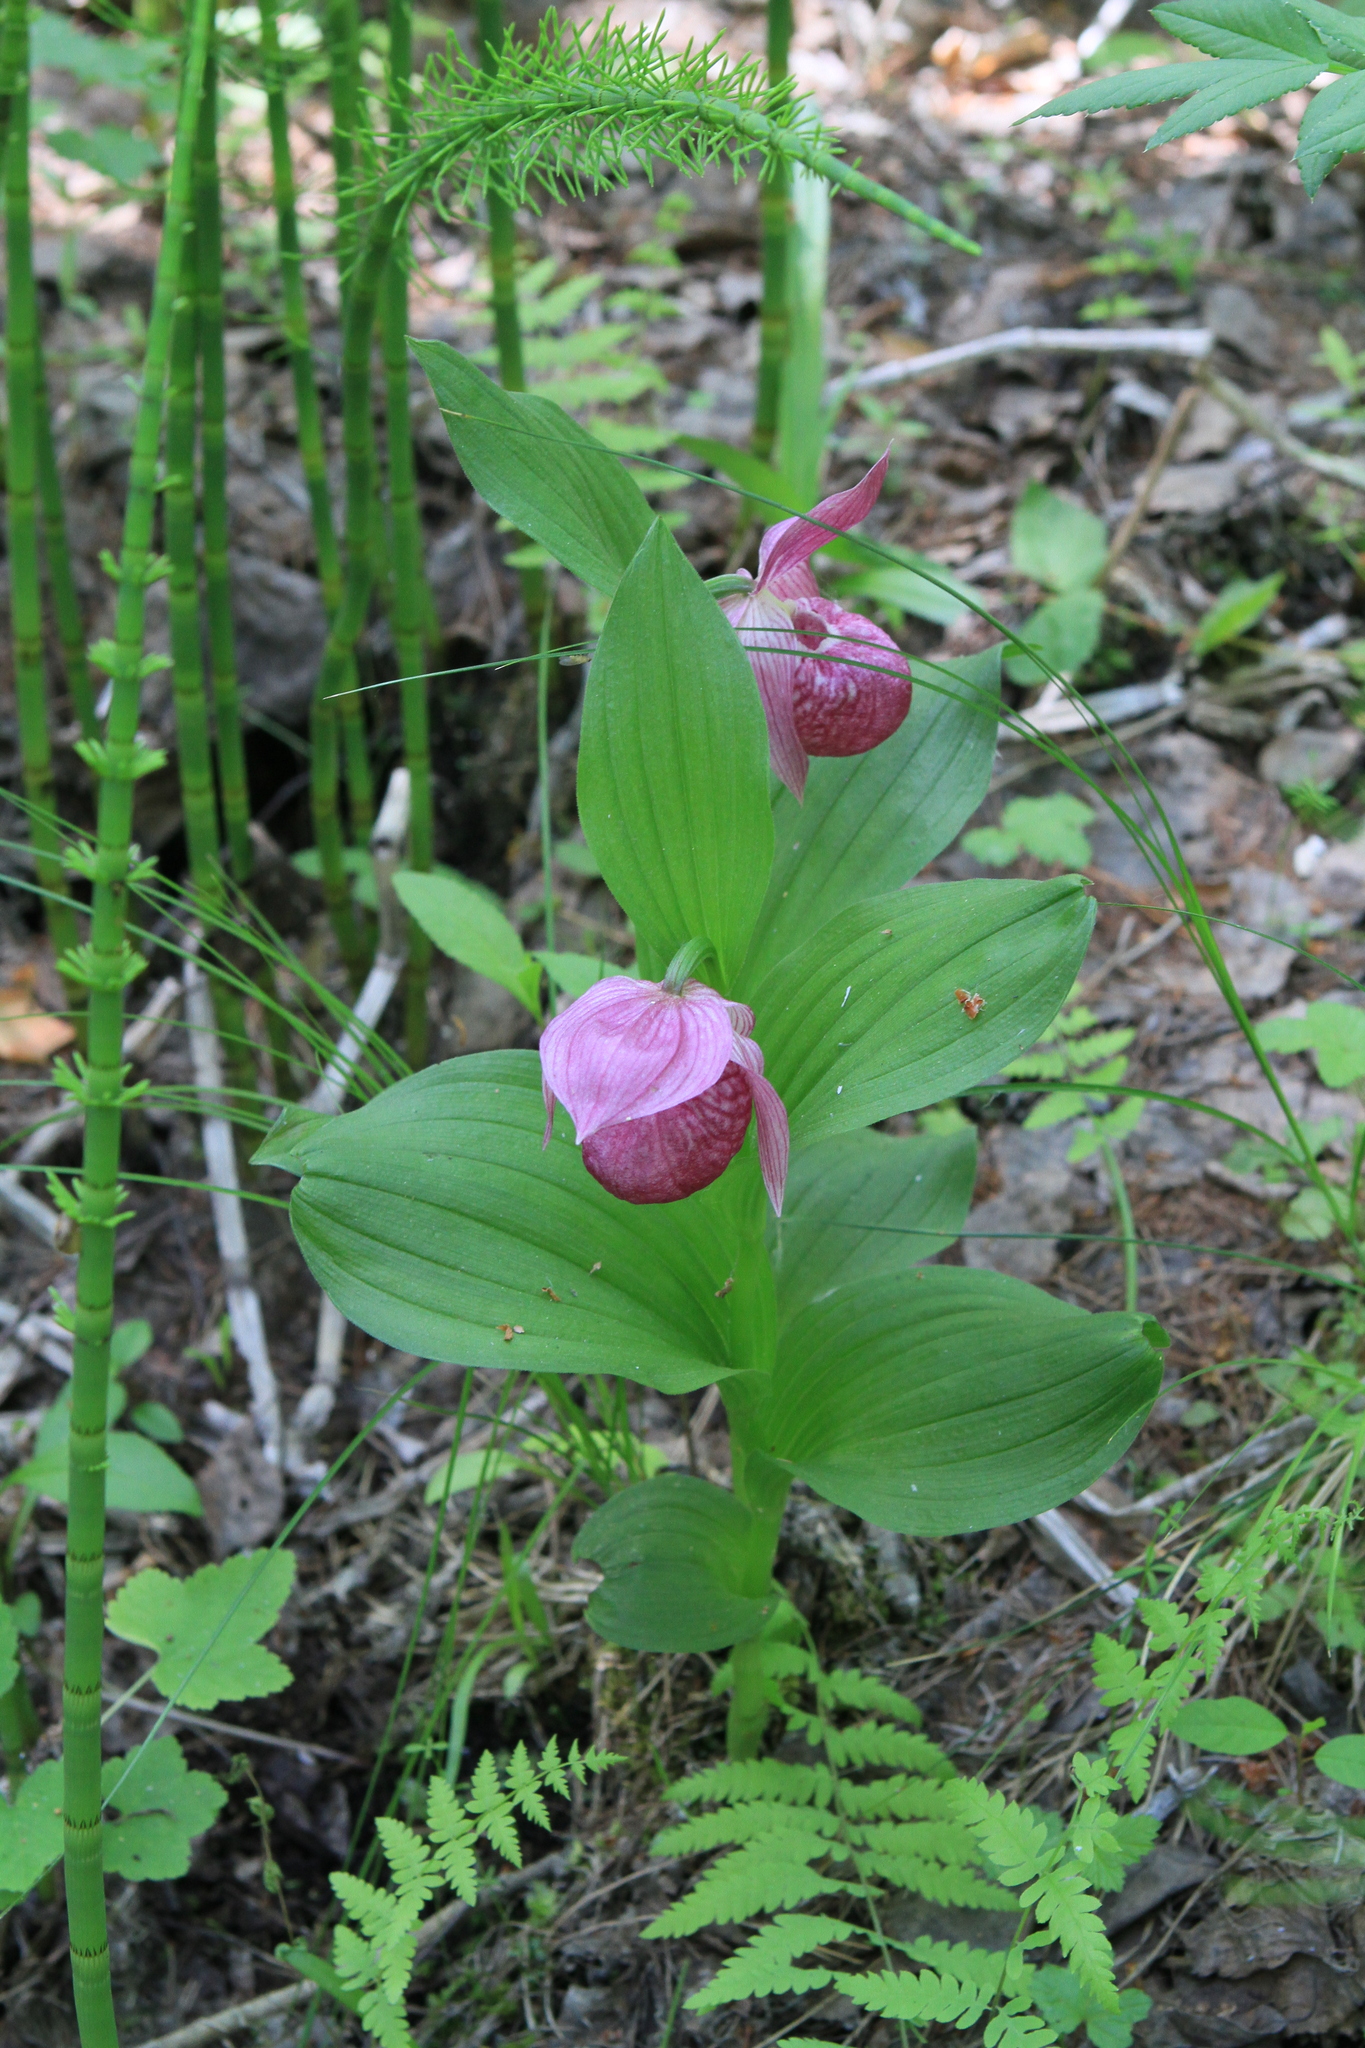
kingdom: Plantae
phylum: Tracheophyta
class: Liliopsida
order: Asparagales
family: Orchidaceae
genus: Cypripedium
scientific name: Cypripedium macranthos
